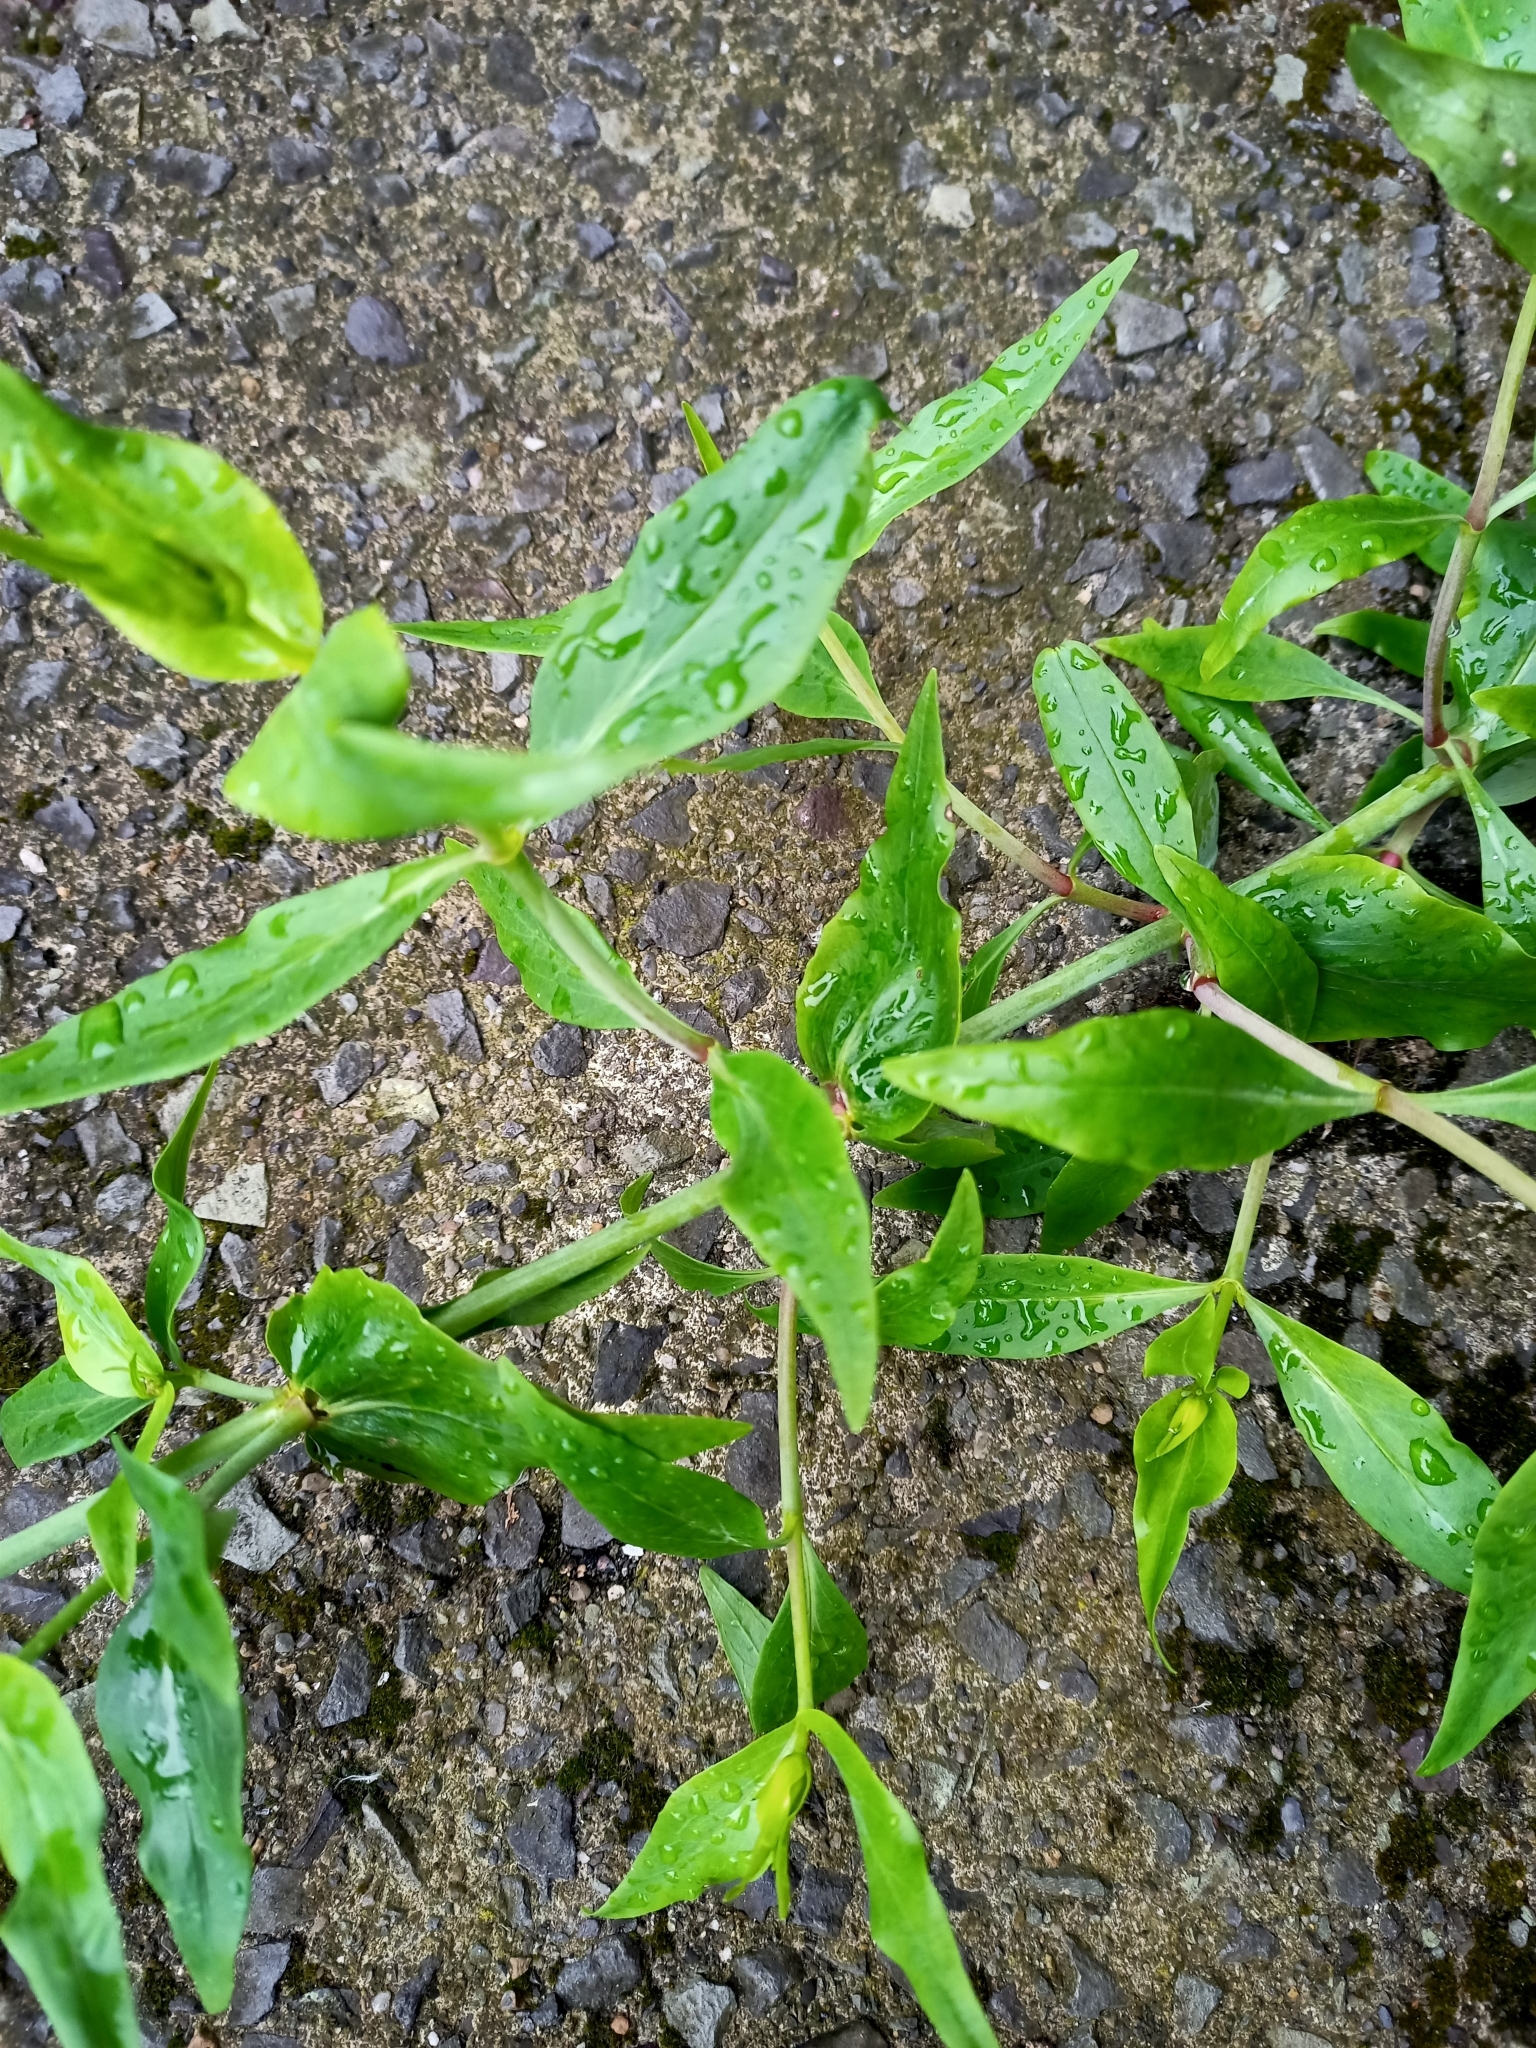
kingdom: Plantae
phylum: Tracheophyta
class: Magnoliopsida
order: Dipsacales
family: Caprifoliaceae
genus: Centranthus
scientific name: Centranthus ruber
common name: Red valerian
